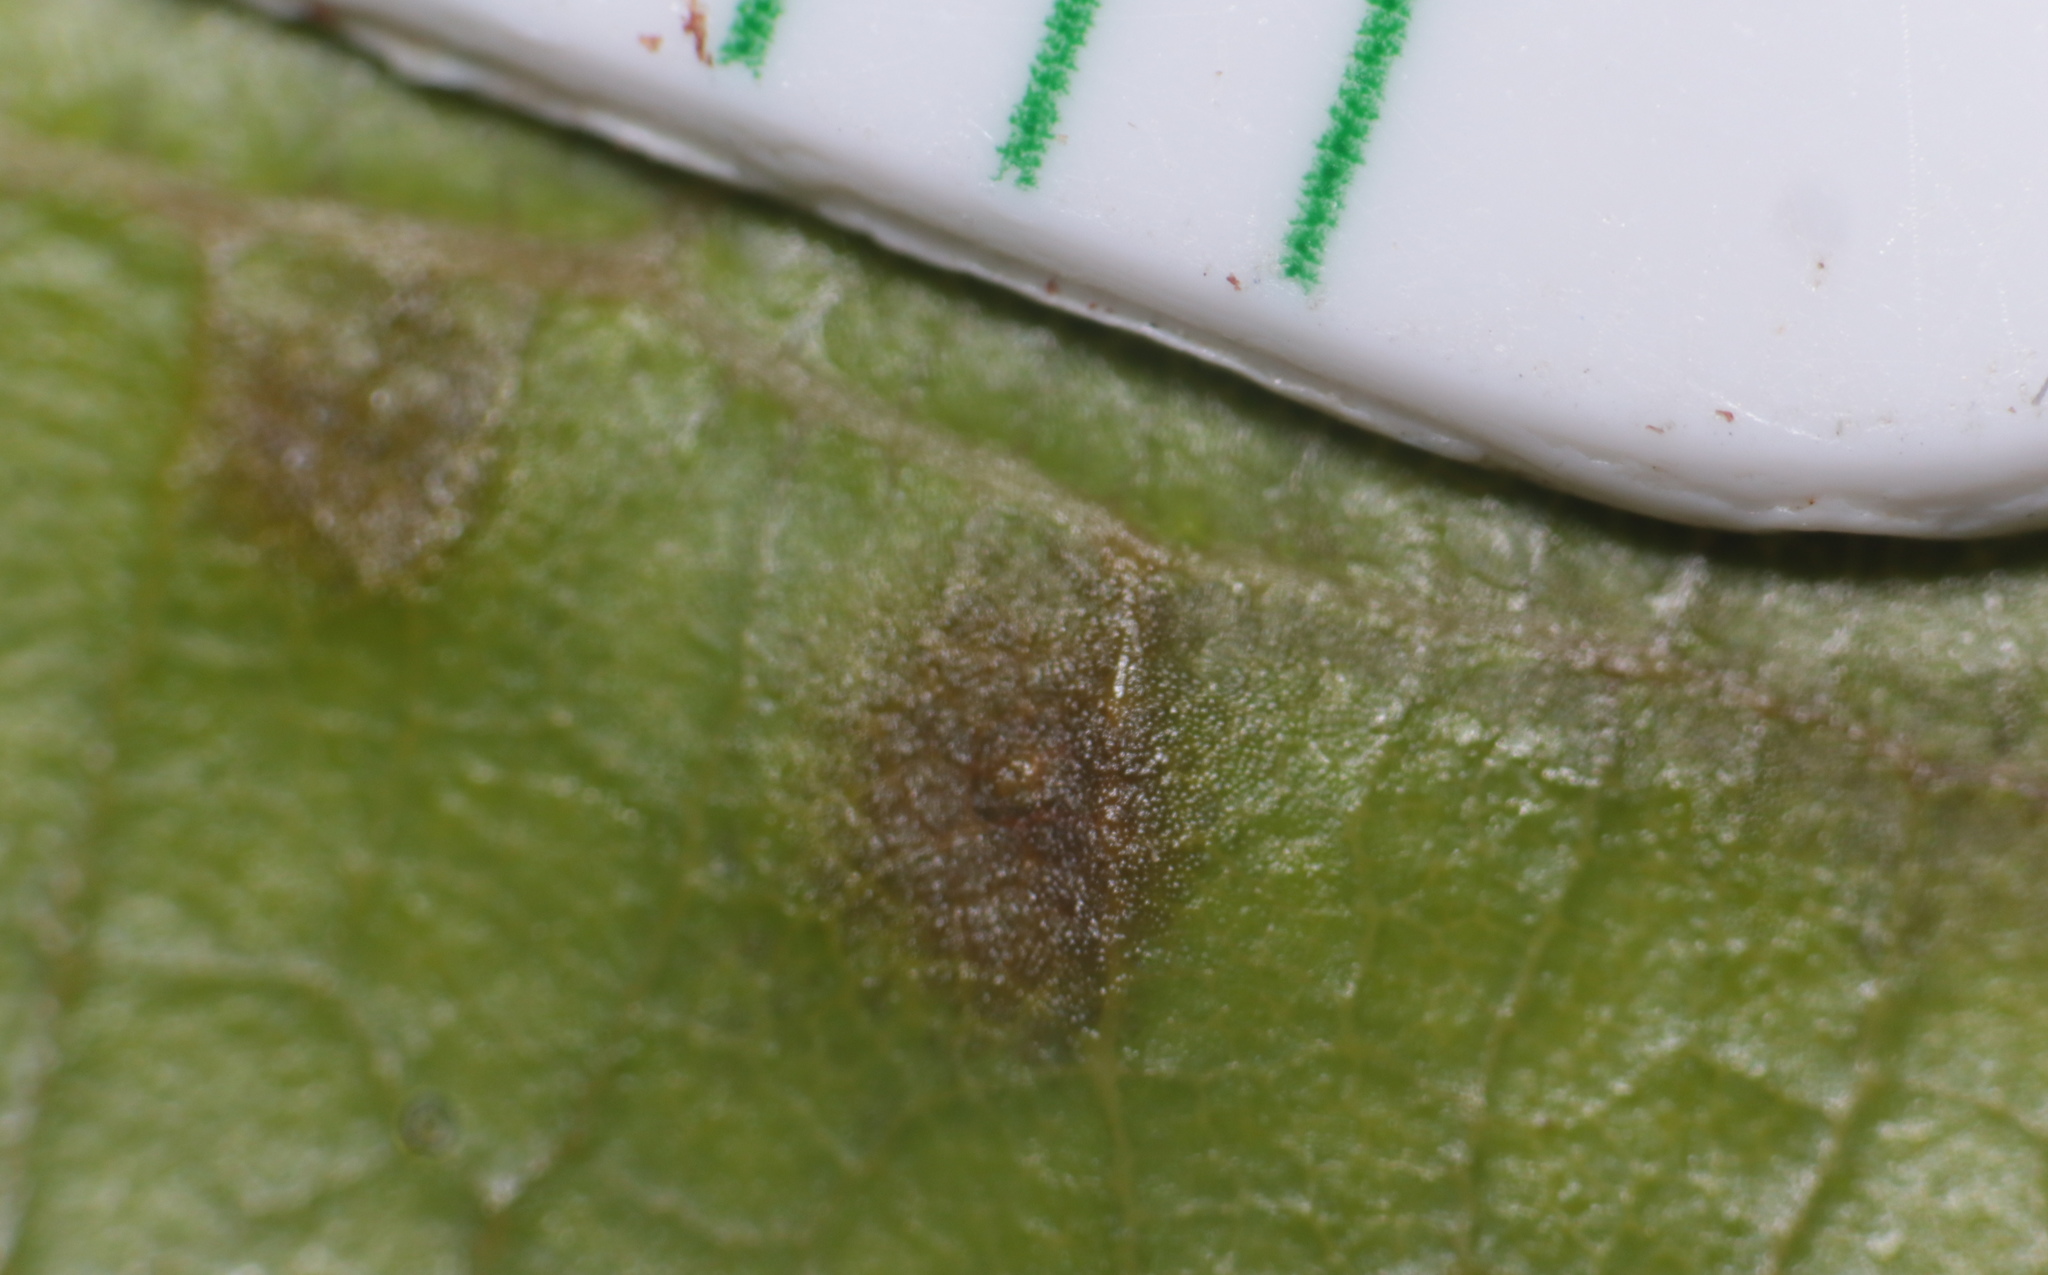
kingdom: Animalia
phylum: Arthropoda
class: Insecta
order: Hymenoptera
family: Cynipidae
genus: Neuroterus
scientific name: Neuroterus niger
